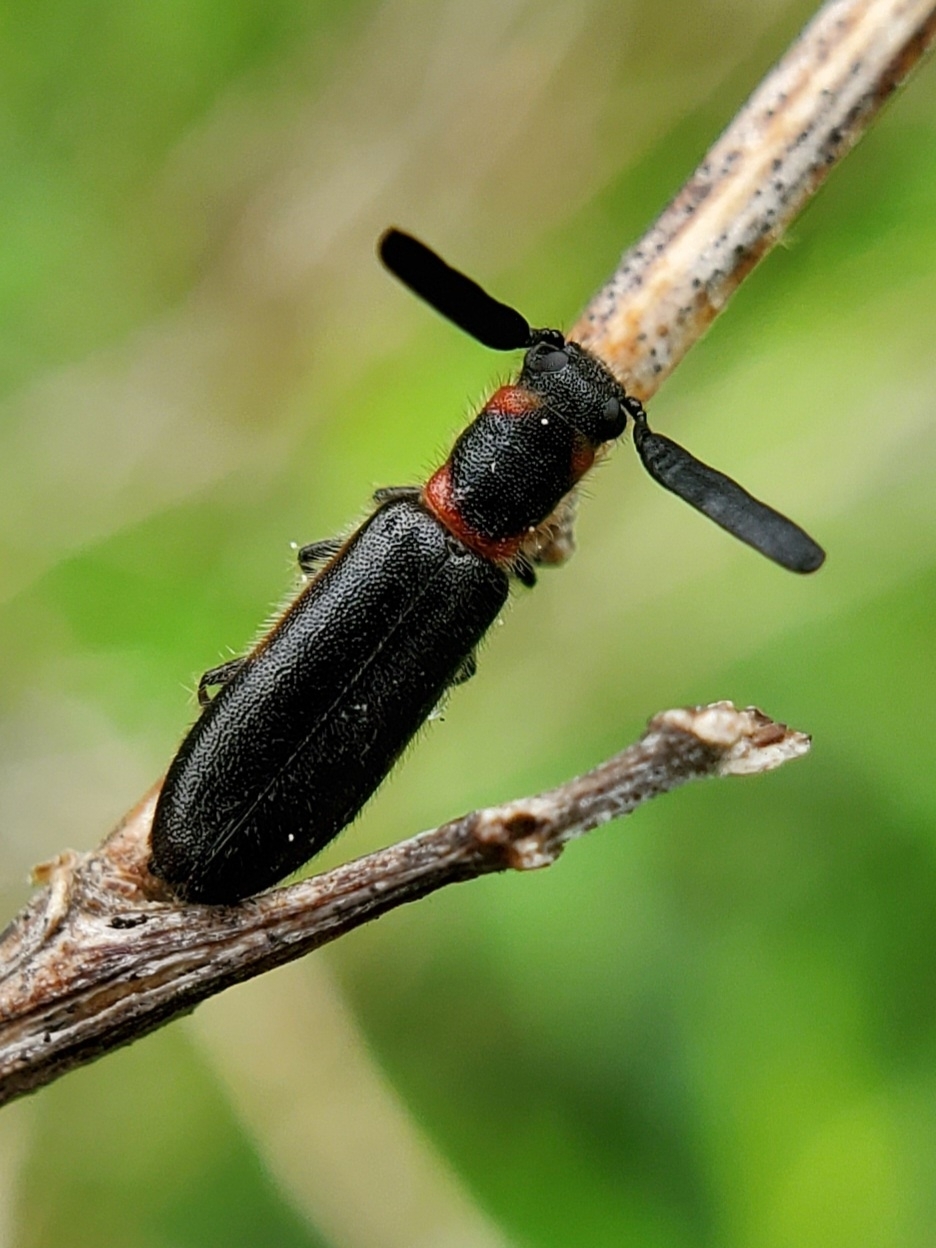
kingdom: Animalia
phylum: Arthropoda
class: Insecta
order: Coleoptera
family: Cleridae
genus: Monophylla
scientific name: Monophylla terminata
